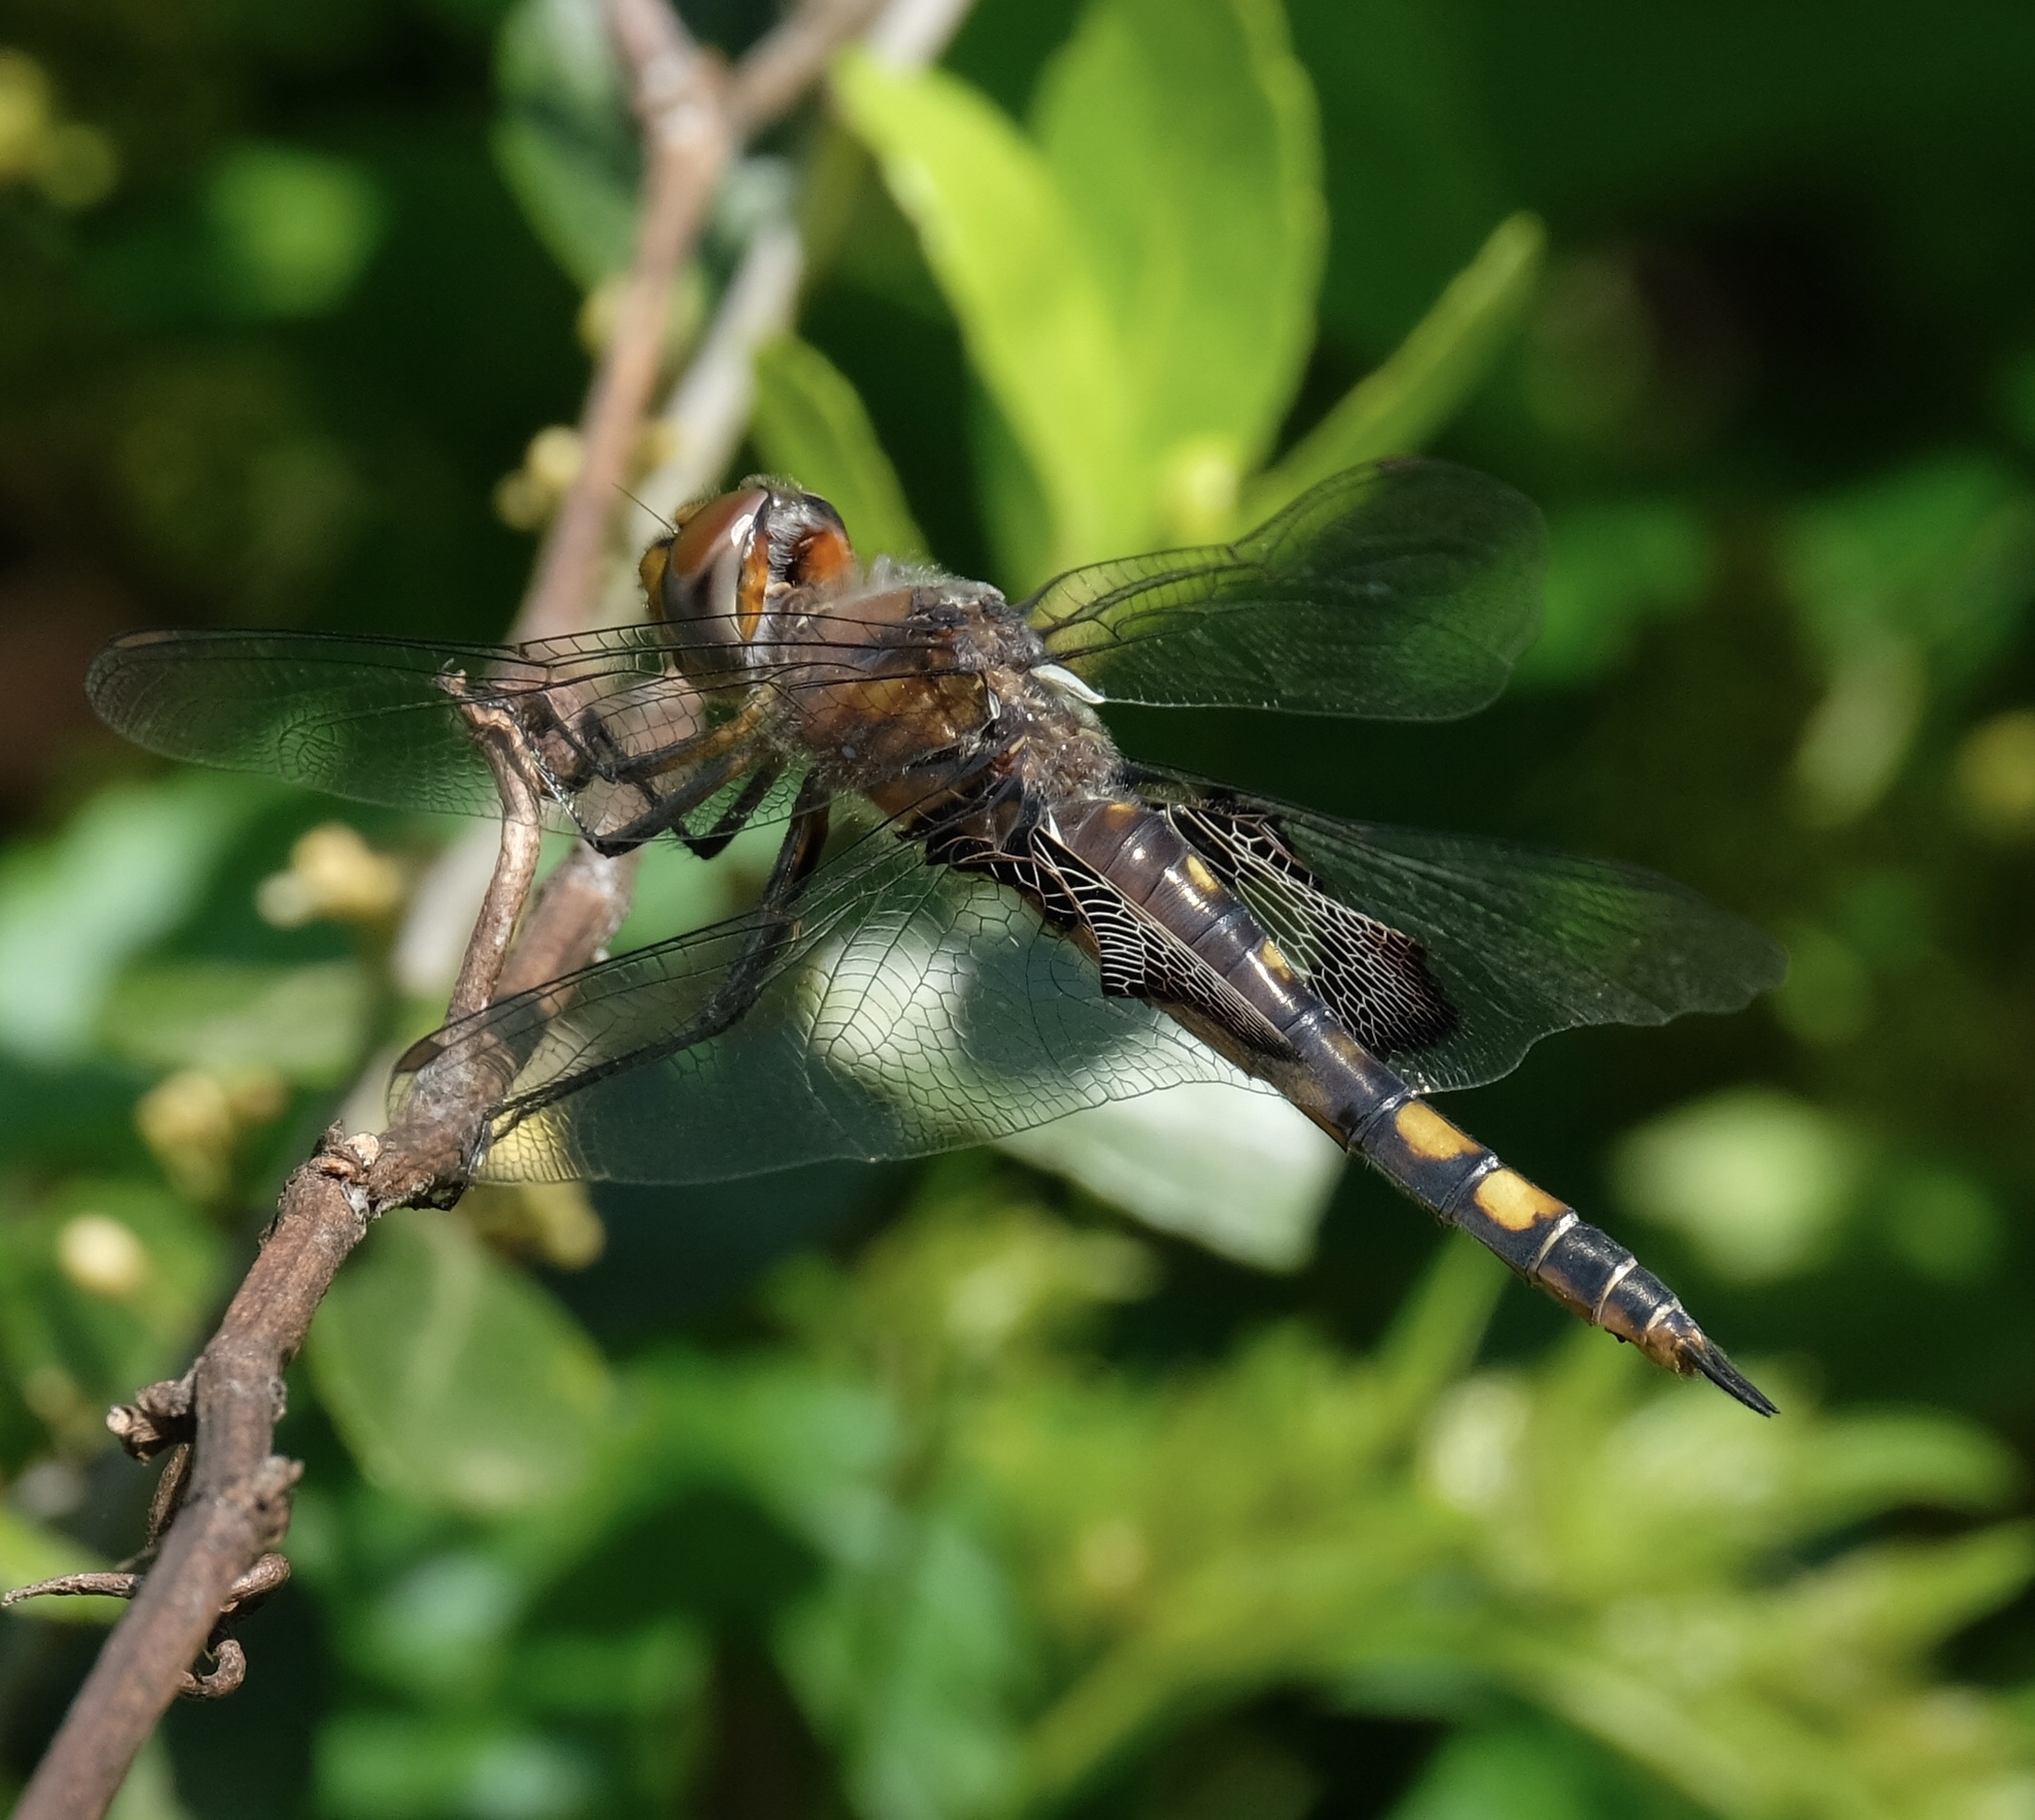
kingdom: Animalia
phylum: Arthropoda
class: Insecta
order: Odonata
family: Libellulidae
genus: Tramea
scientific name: Tramea lacerata
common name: Black saddlebags
